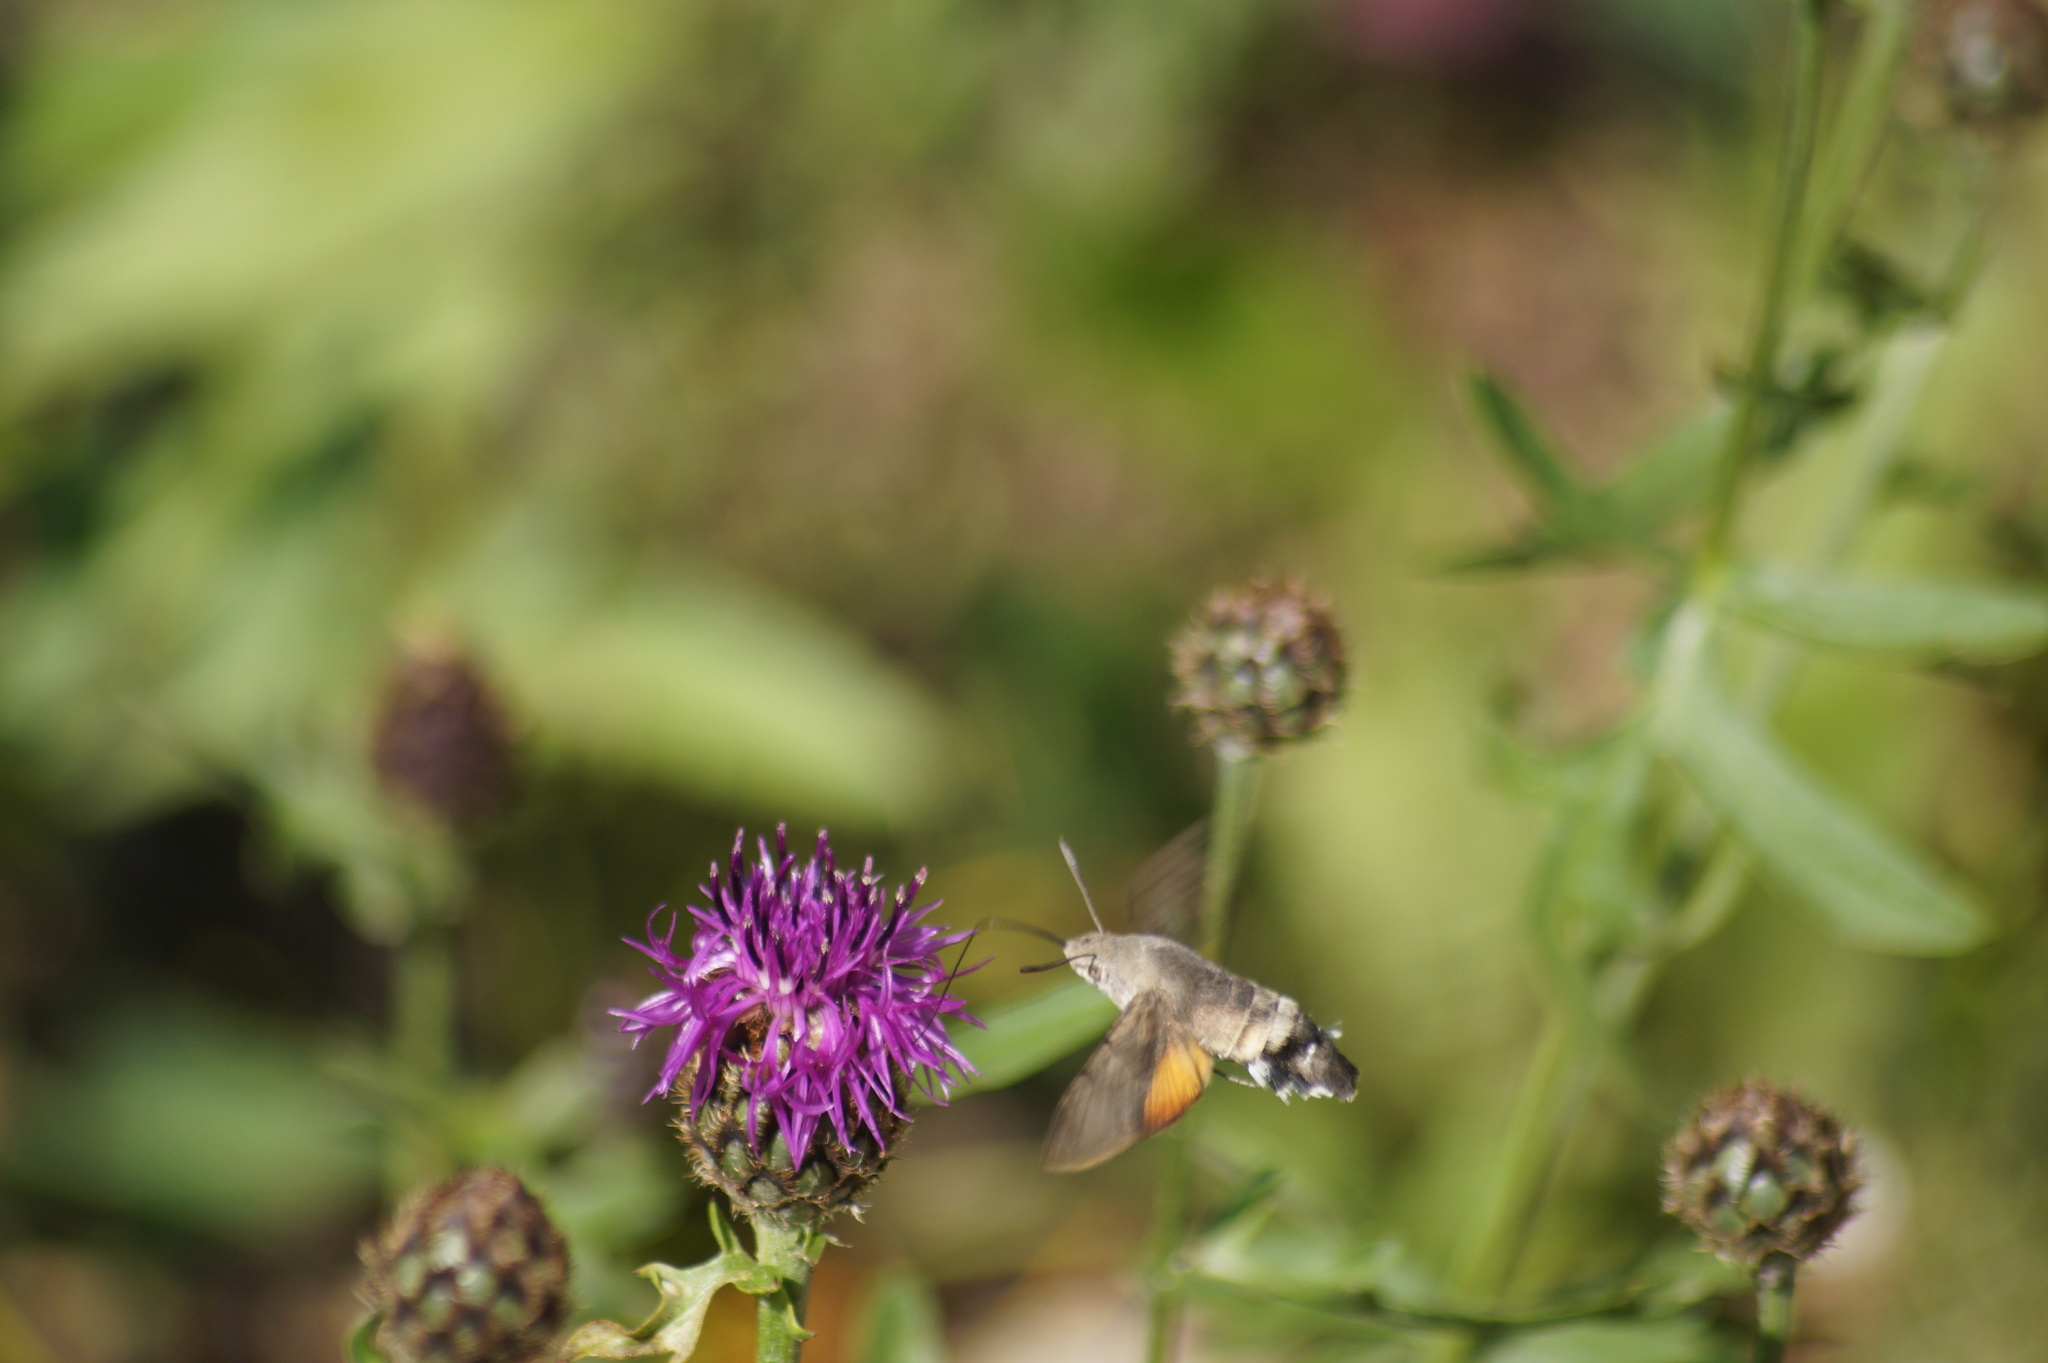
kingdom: Animalia
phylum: Arthropoda
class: Insecta
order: Lepidoptera
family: Sphingidae
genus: Macroglossum
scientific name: Macroglossum stellatarum
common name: Humming-bird hawk-moth
